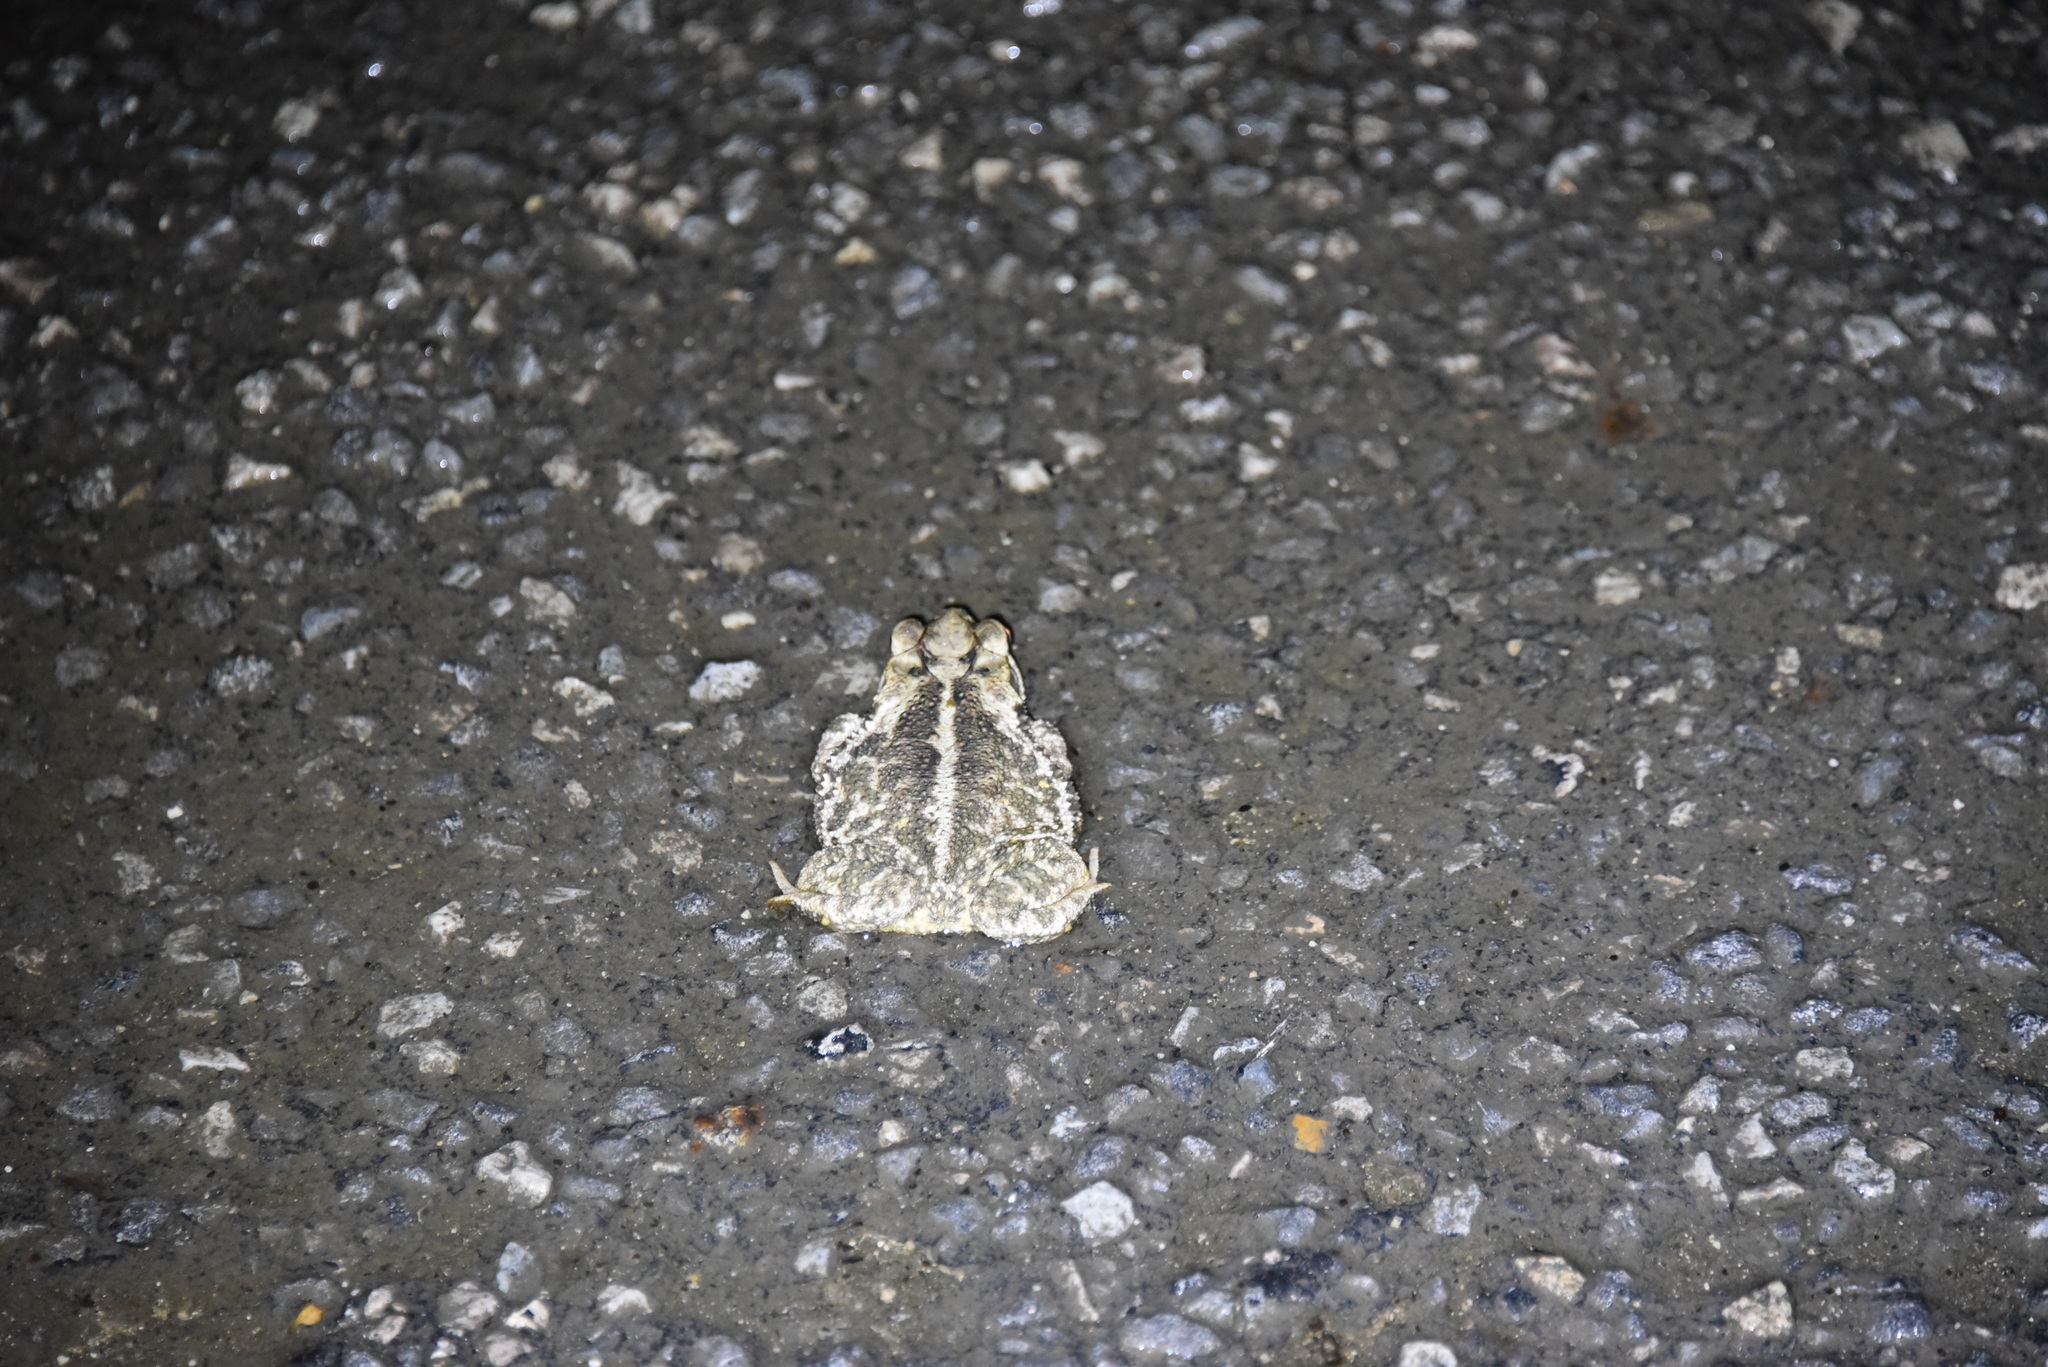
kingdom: Animalia
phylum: Chordata
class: Amphibia
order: Anura
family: Bufonidae
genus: Incilius
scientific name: Incilius nebulifer
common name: Gulf coast toad
